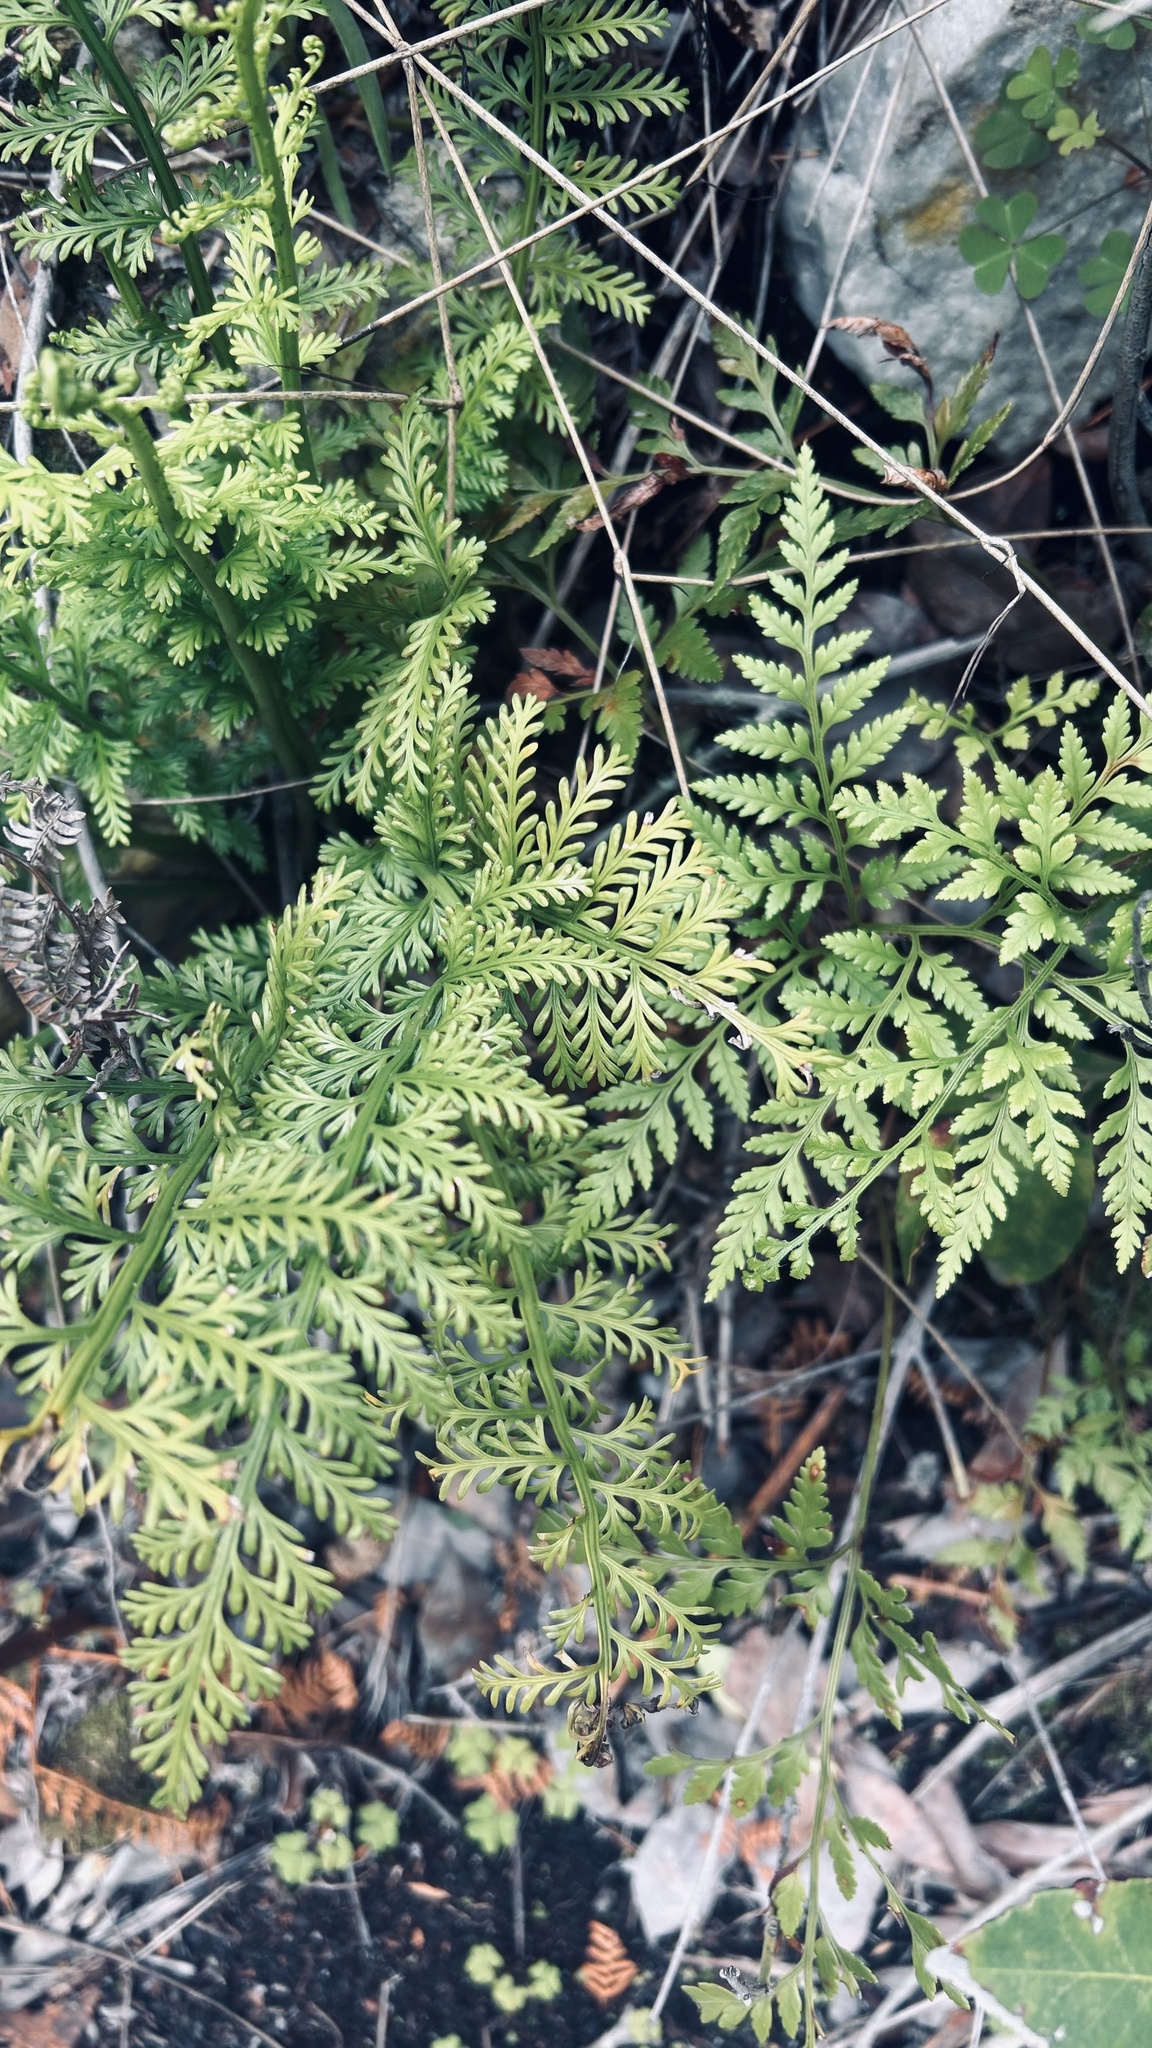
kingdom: Plantae
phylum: Tracheophyta
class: Polypodiopsida
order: Polypodiales
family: Dryopteridaceae
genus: Rumohra
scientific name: Rumohra adiantiformis
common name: Leather fern
